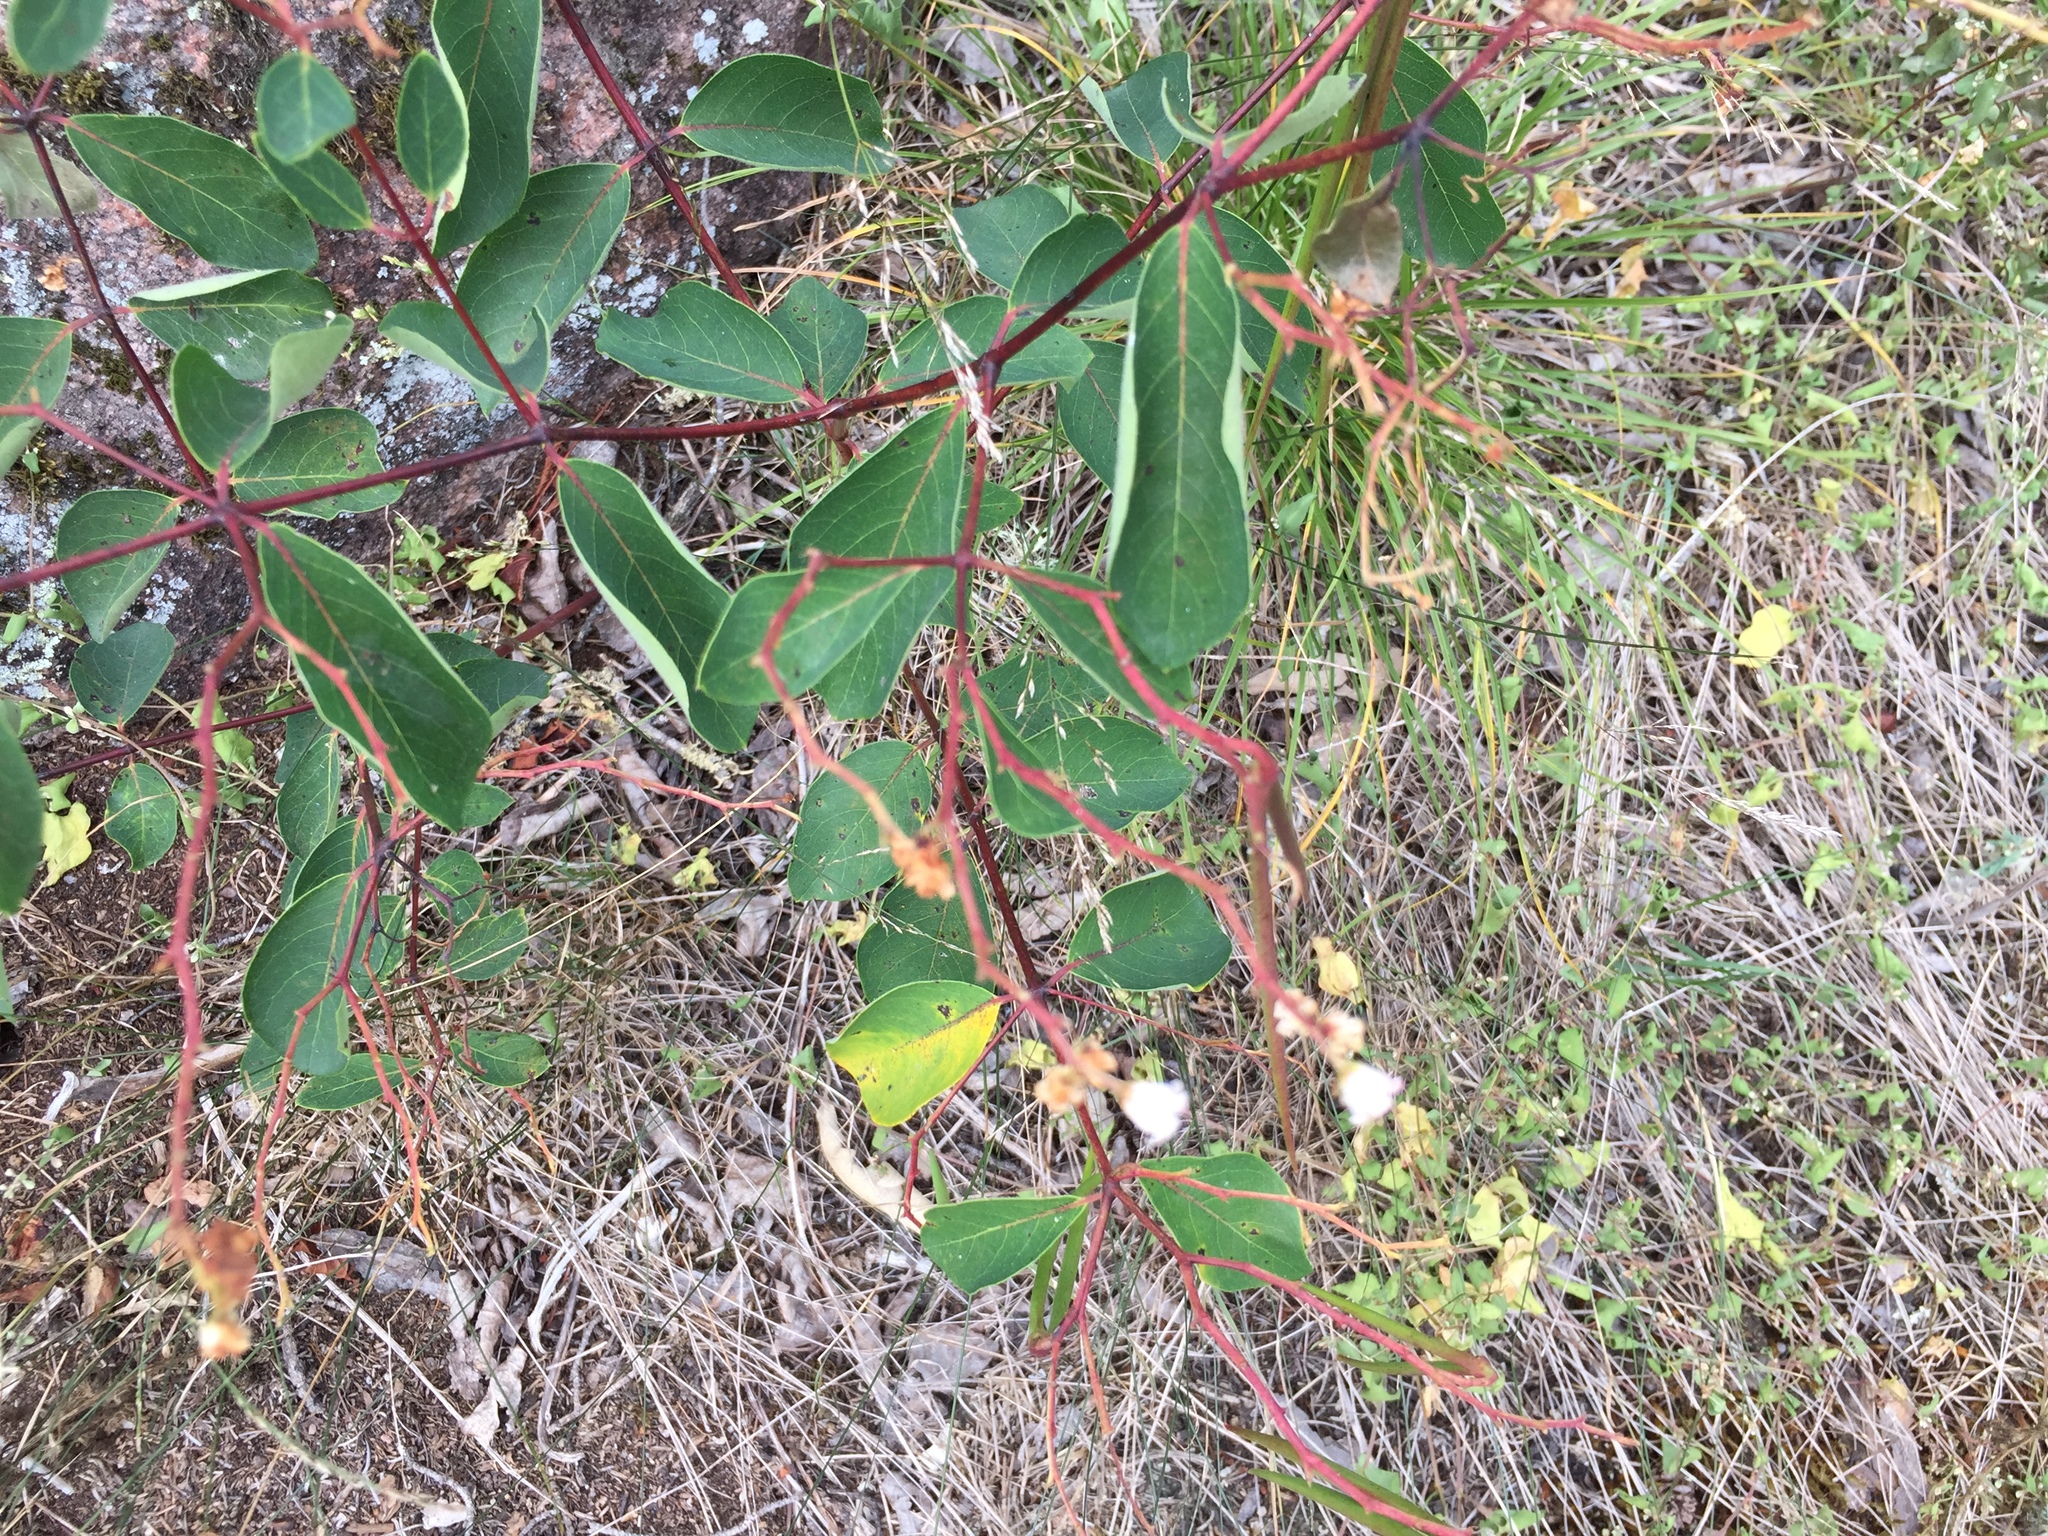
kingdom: Plantae
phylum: Tracheophyta
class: Magnoliopsida
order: Gentianales
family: Apocynaceae
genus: Apocynum
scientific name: Apocynum androsaemifolium
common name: Spreading dogbane
